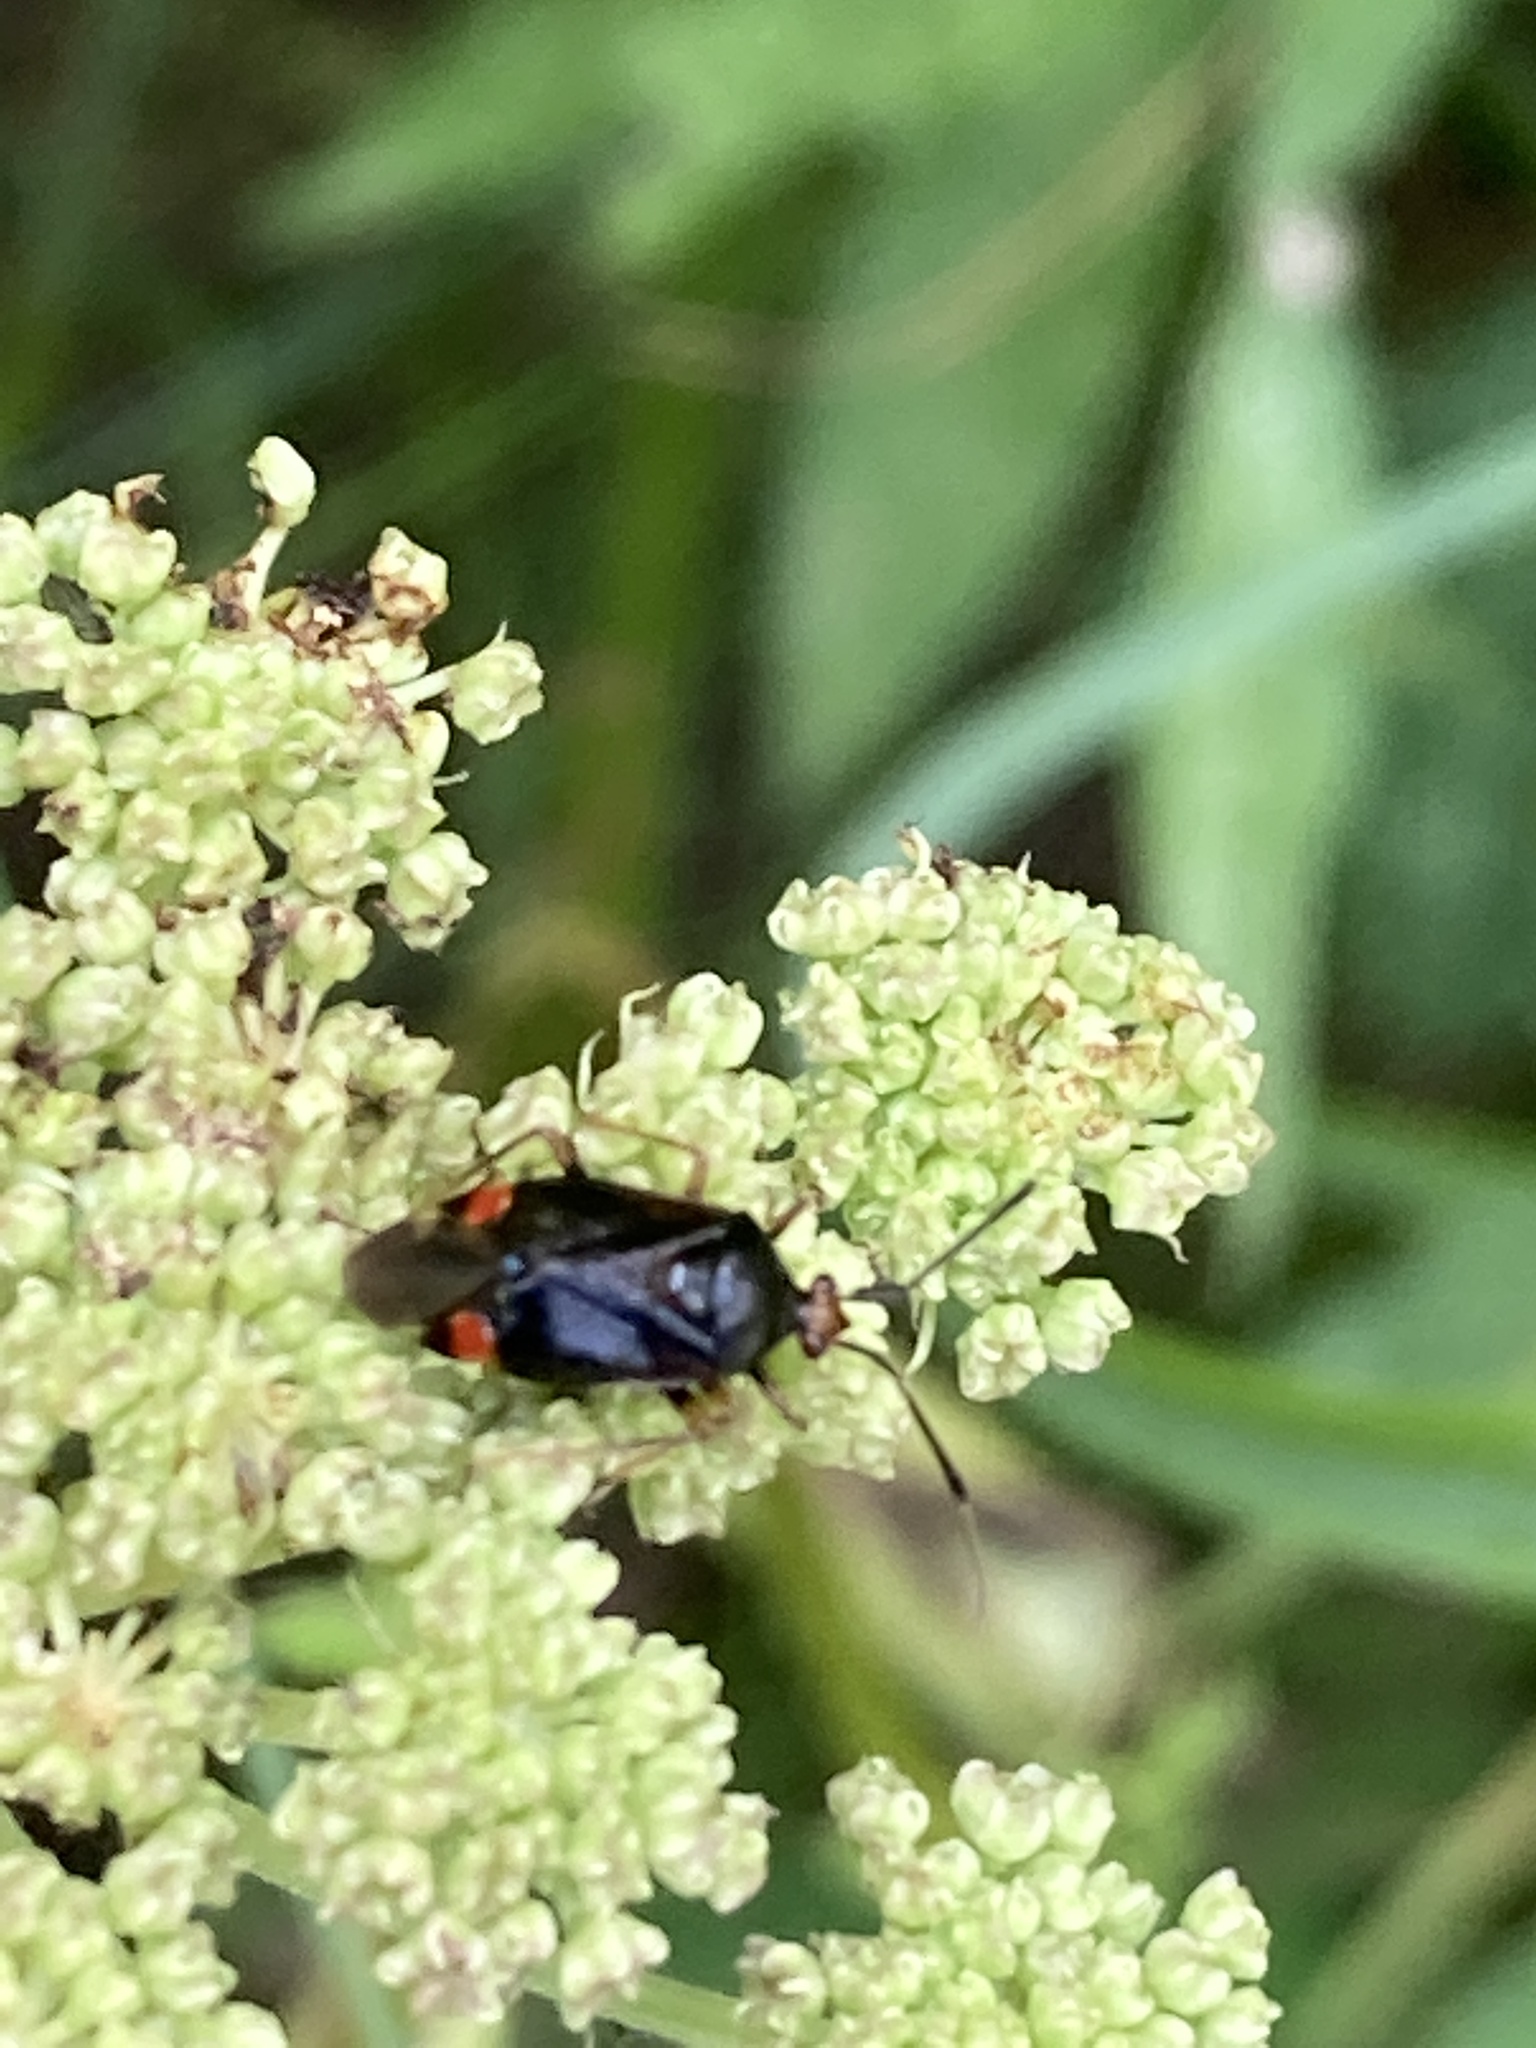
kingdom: Animalia
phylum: Arthropoda
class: Insecta
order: Hemiptera
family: Miridae
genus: Deraeocoris
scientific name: Deraeocoris ruber
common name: Plant bug
